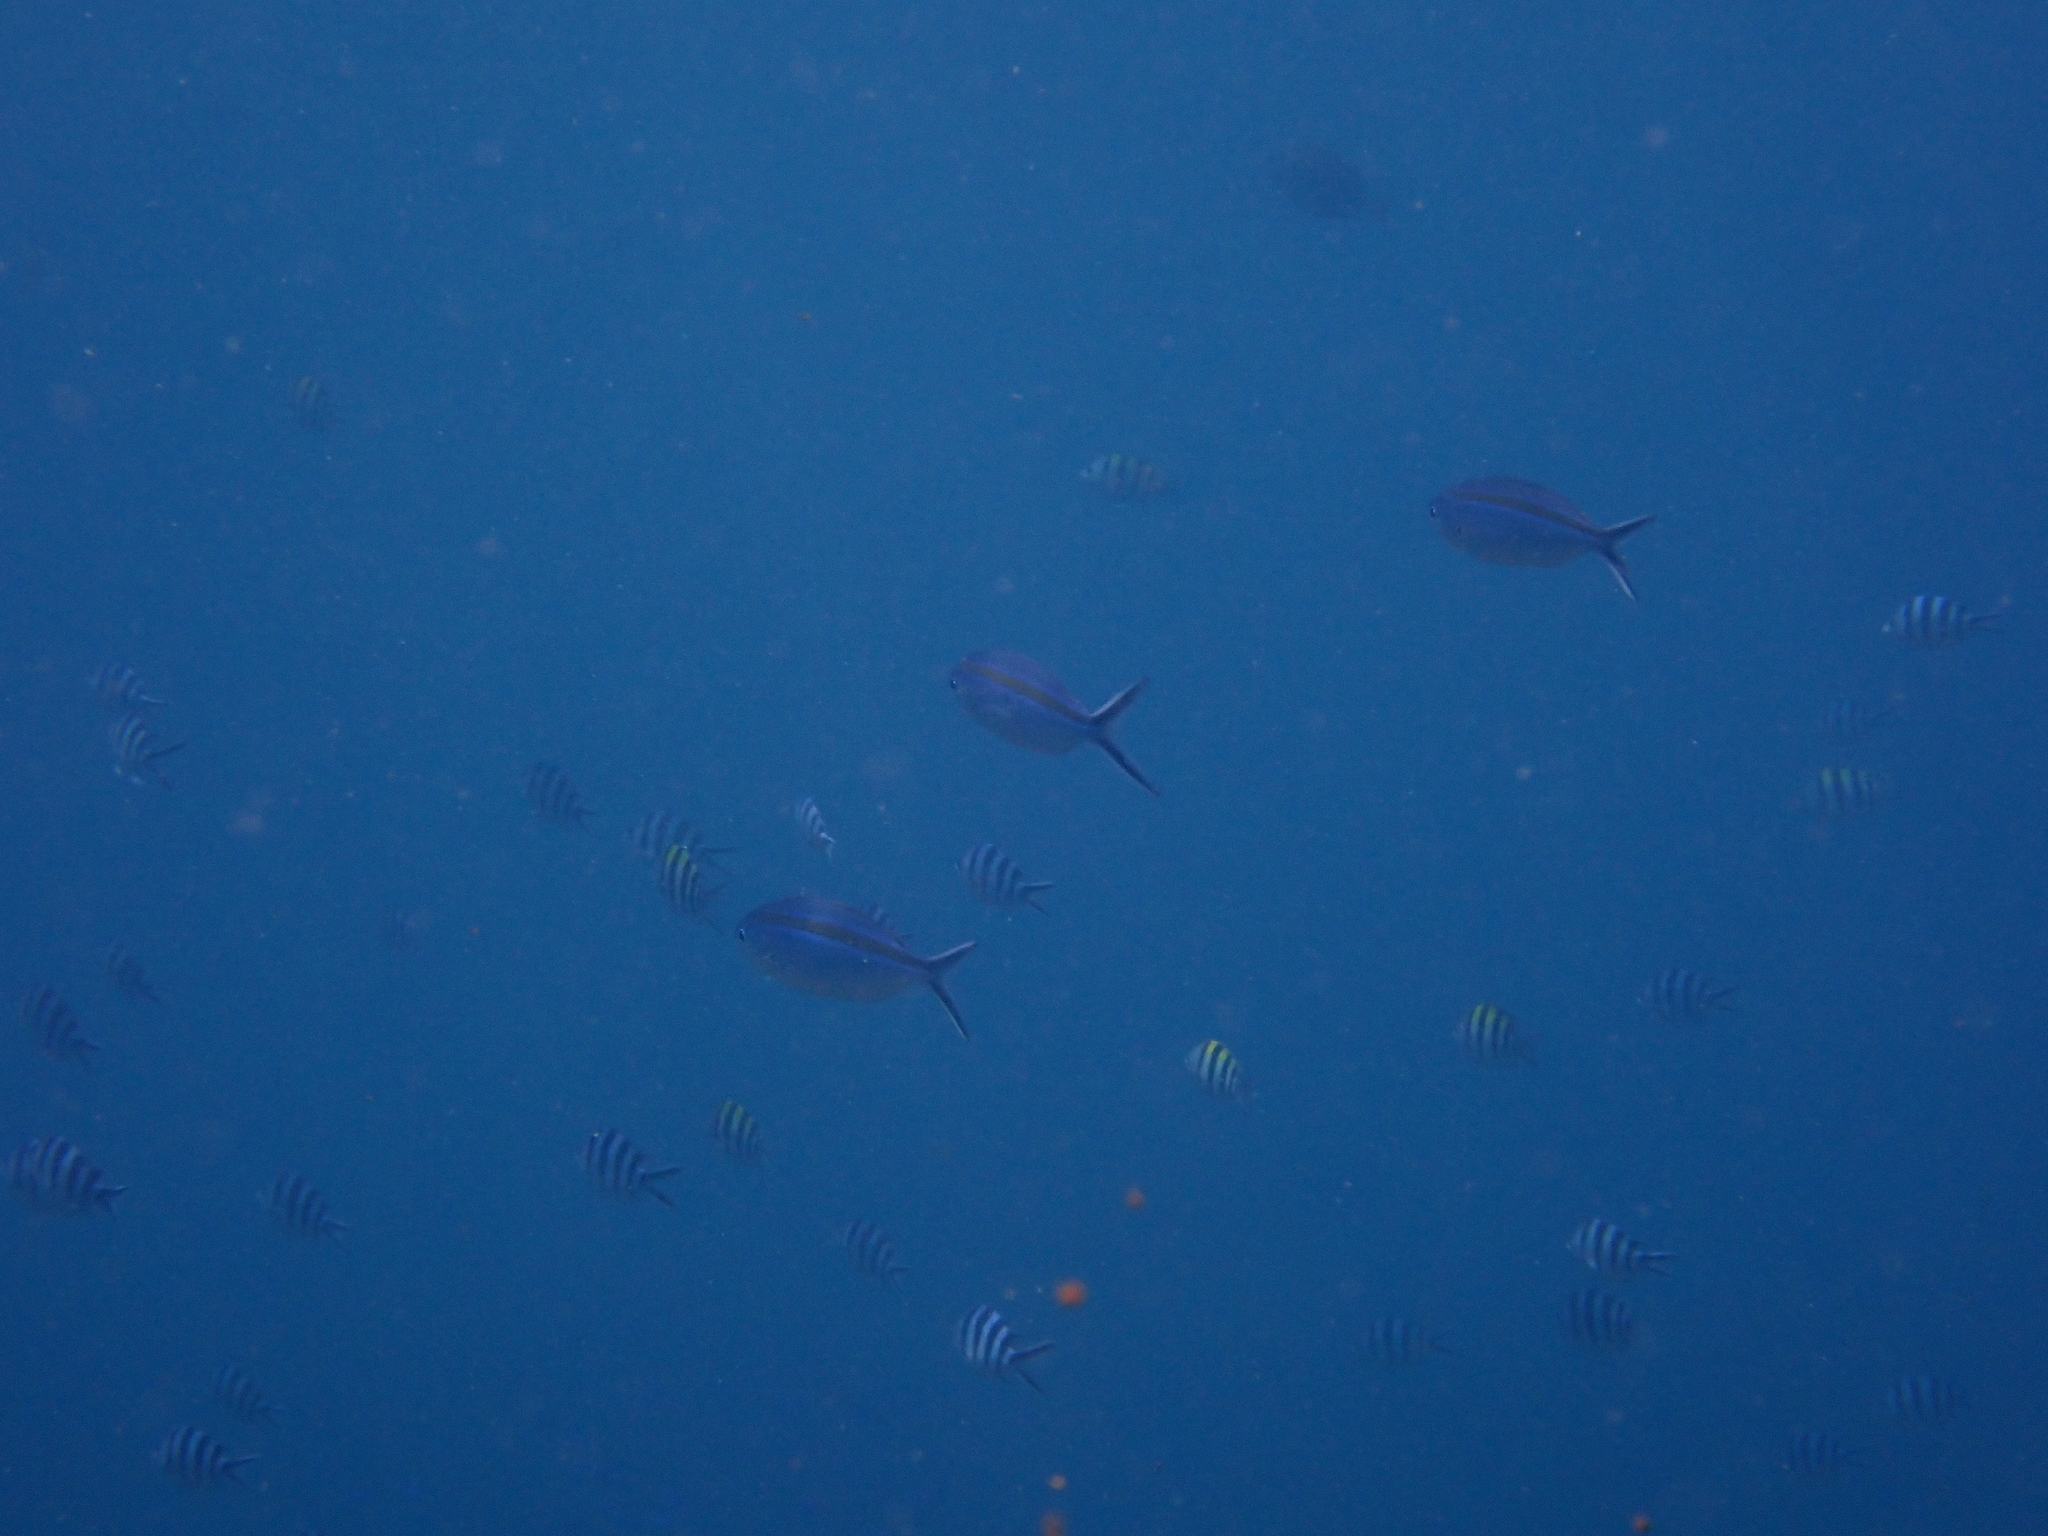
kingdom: Animalia
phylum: Chordata
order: Perciformes
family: Caesionidae
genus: Caesio
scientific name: Caesio caerulaurea
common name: Blue and gold fusilier
